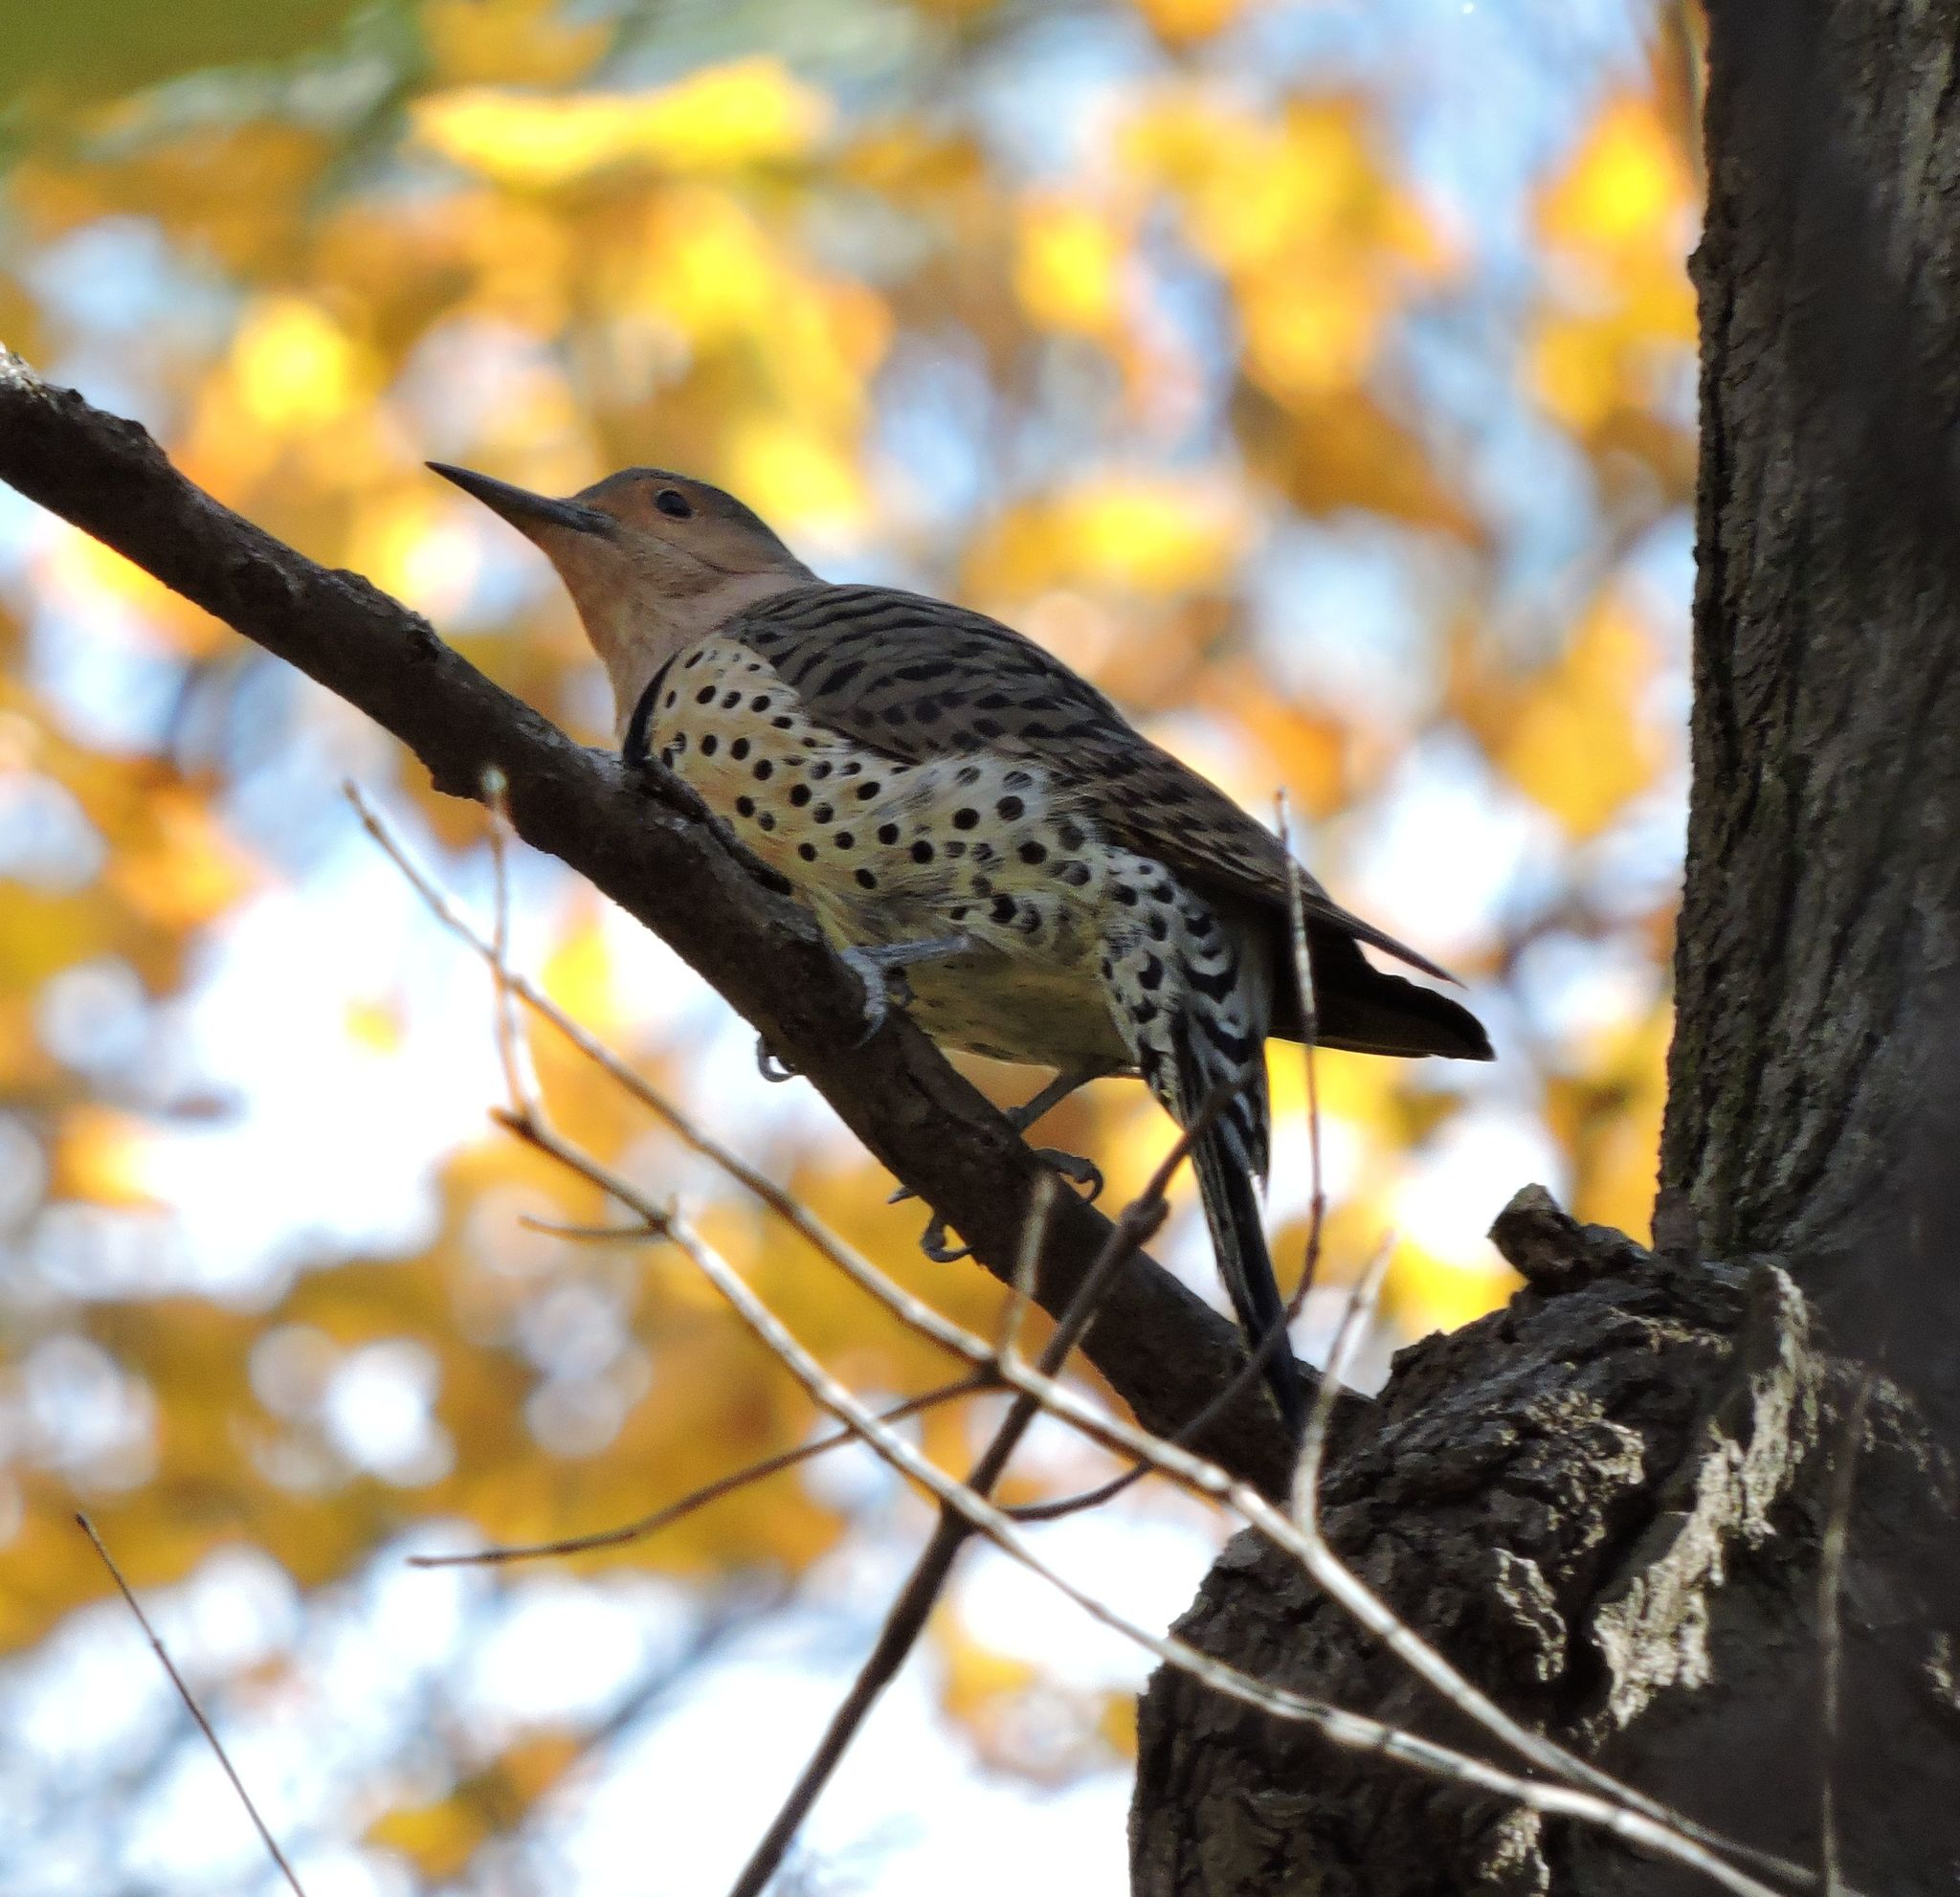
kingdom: Animalia
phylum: Chordata
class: Aves
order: Piciformes
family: Picidae
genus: Colaptes
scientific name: Colaptes auratus
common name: Northern flicker
